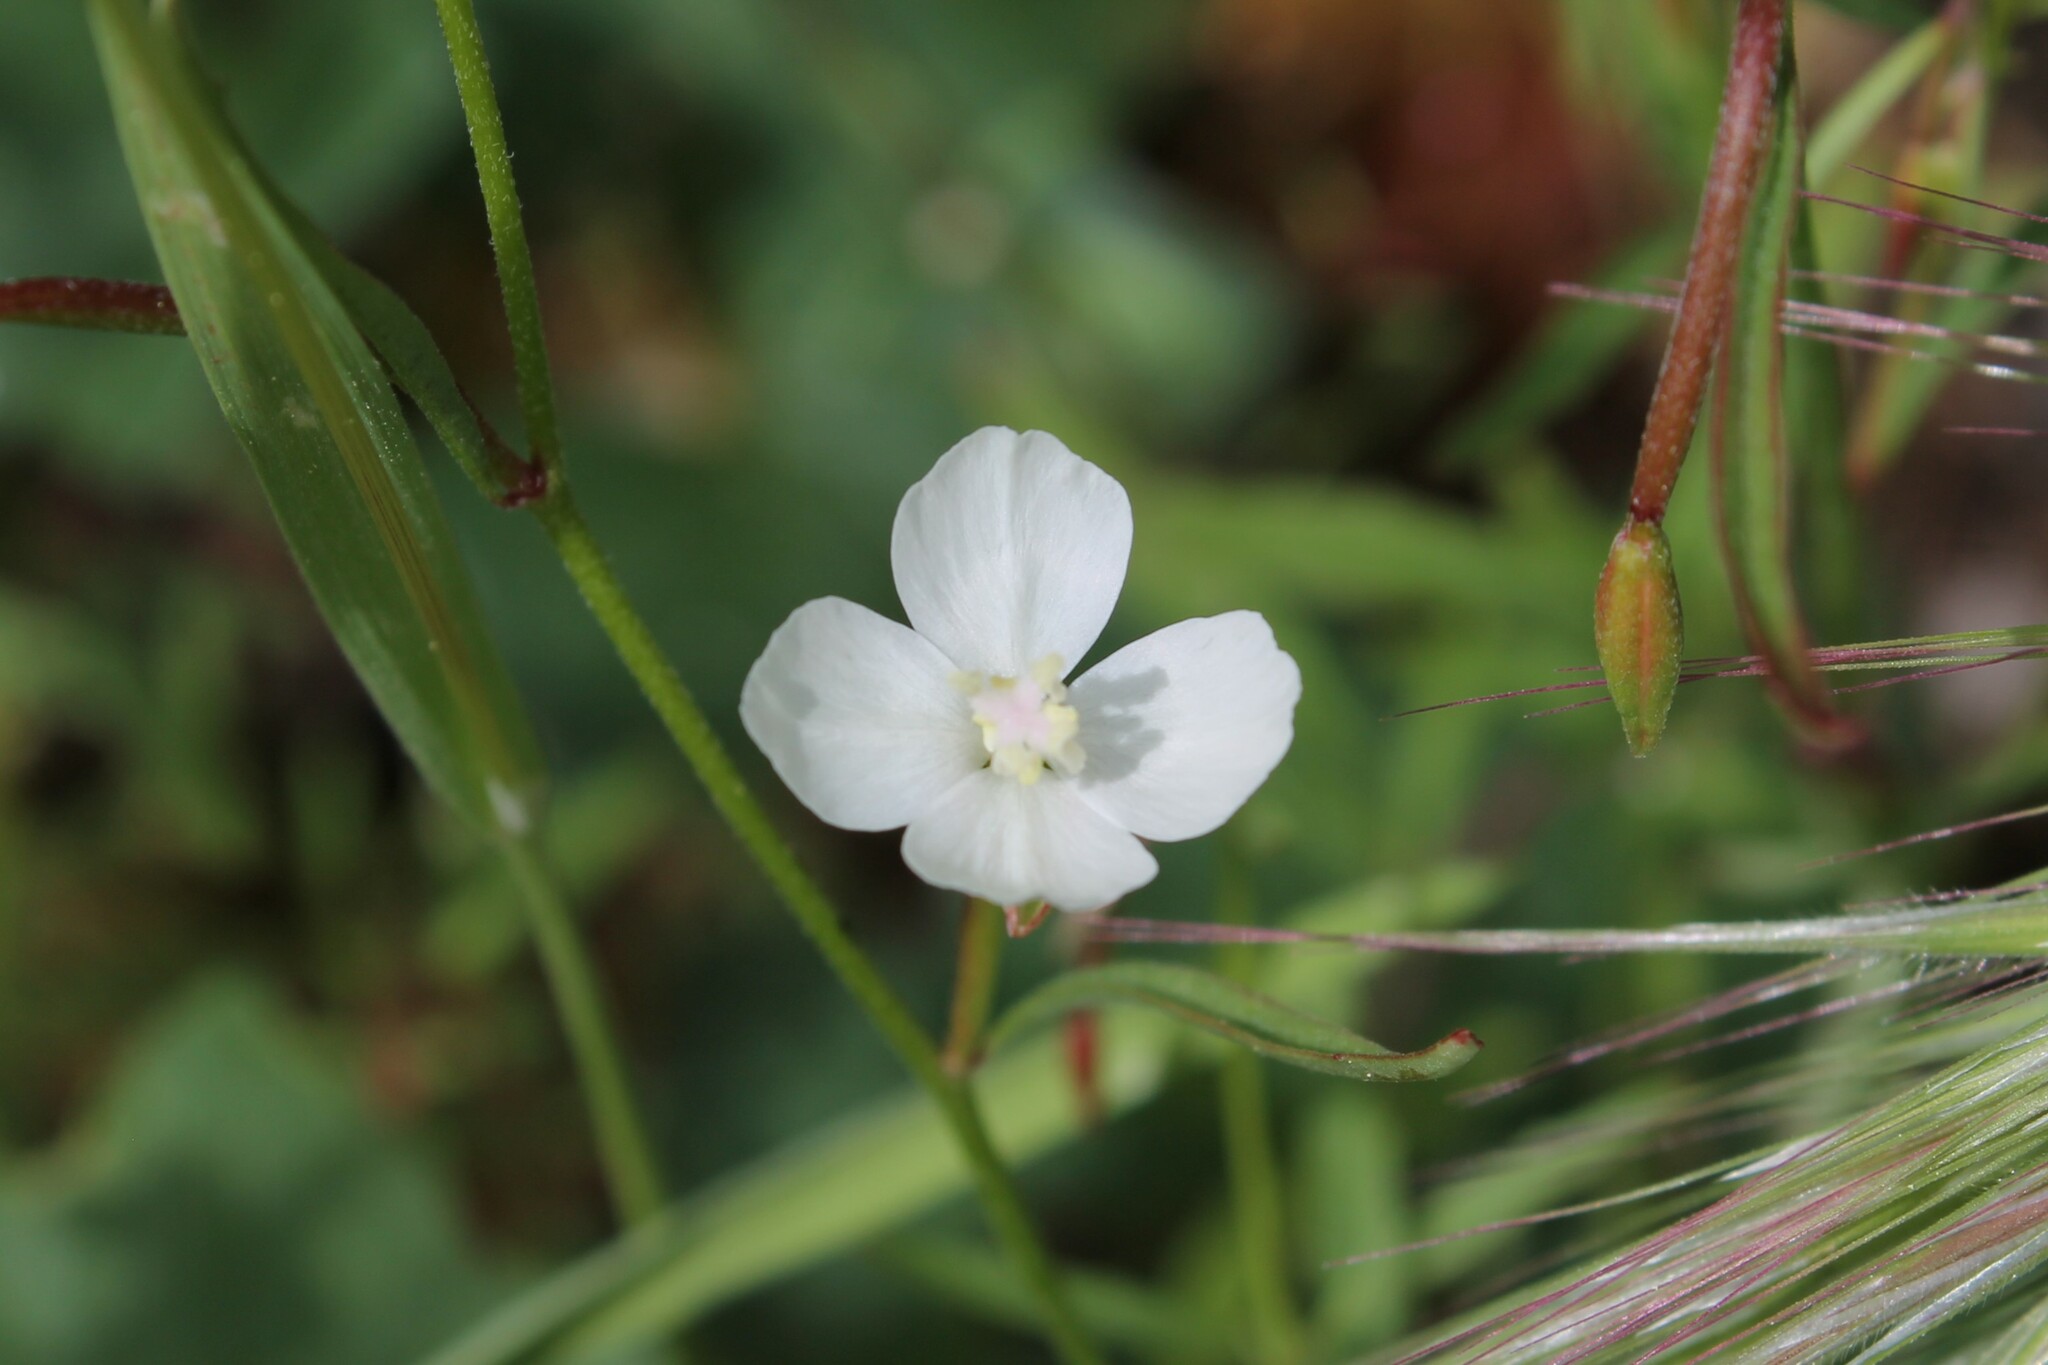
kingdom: Plantae
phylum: Tracheophyta
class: Magnoliopsida
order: Myrtales
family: Onagraceae
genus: Clarkia
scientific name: Clarkia epilobioides
